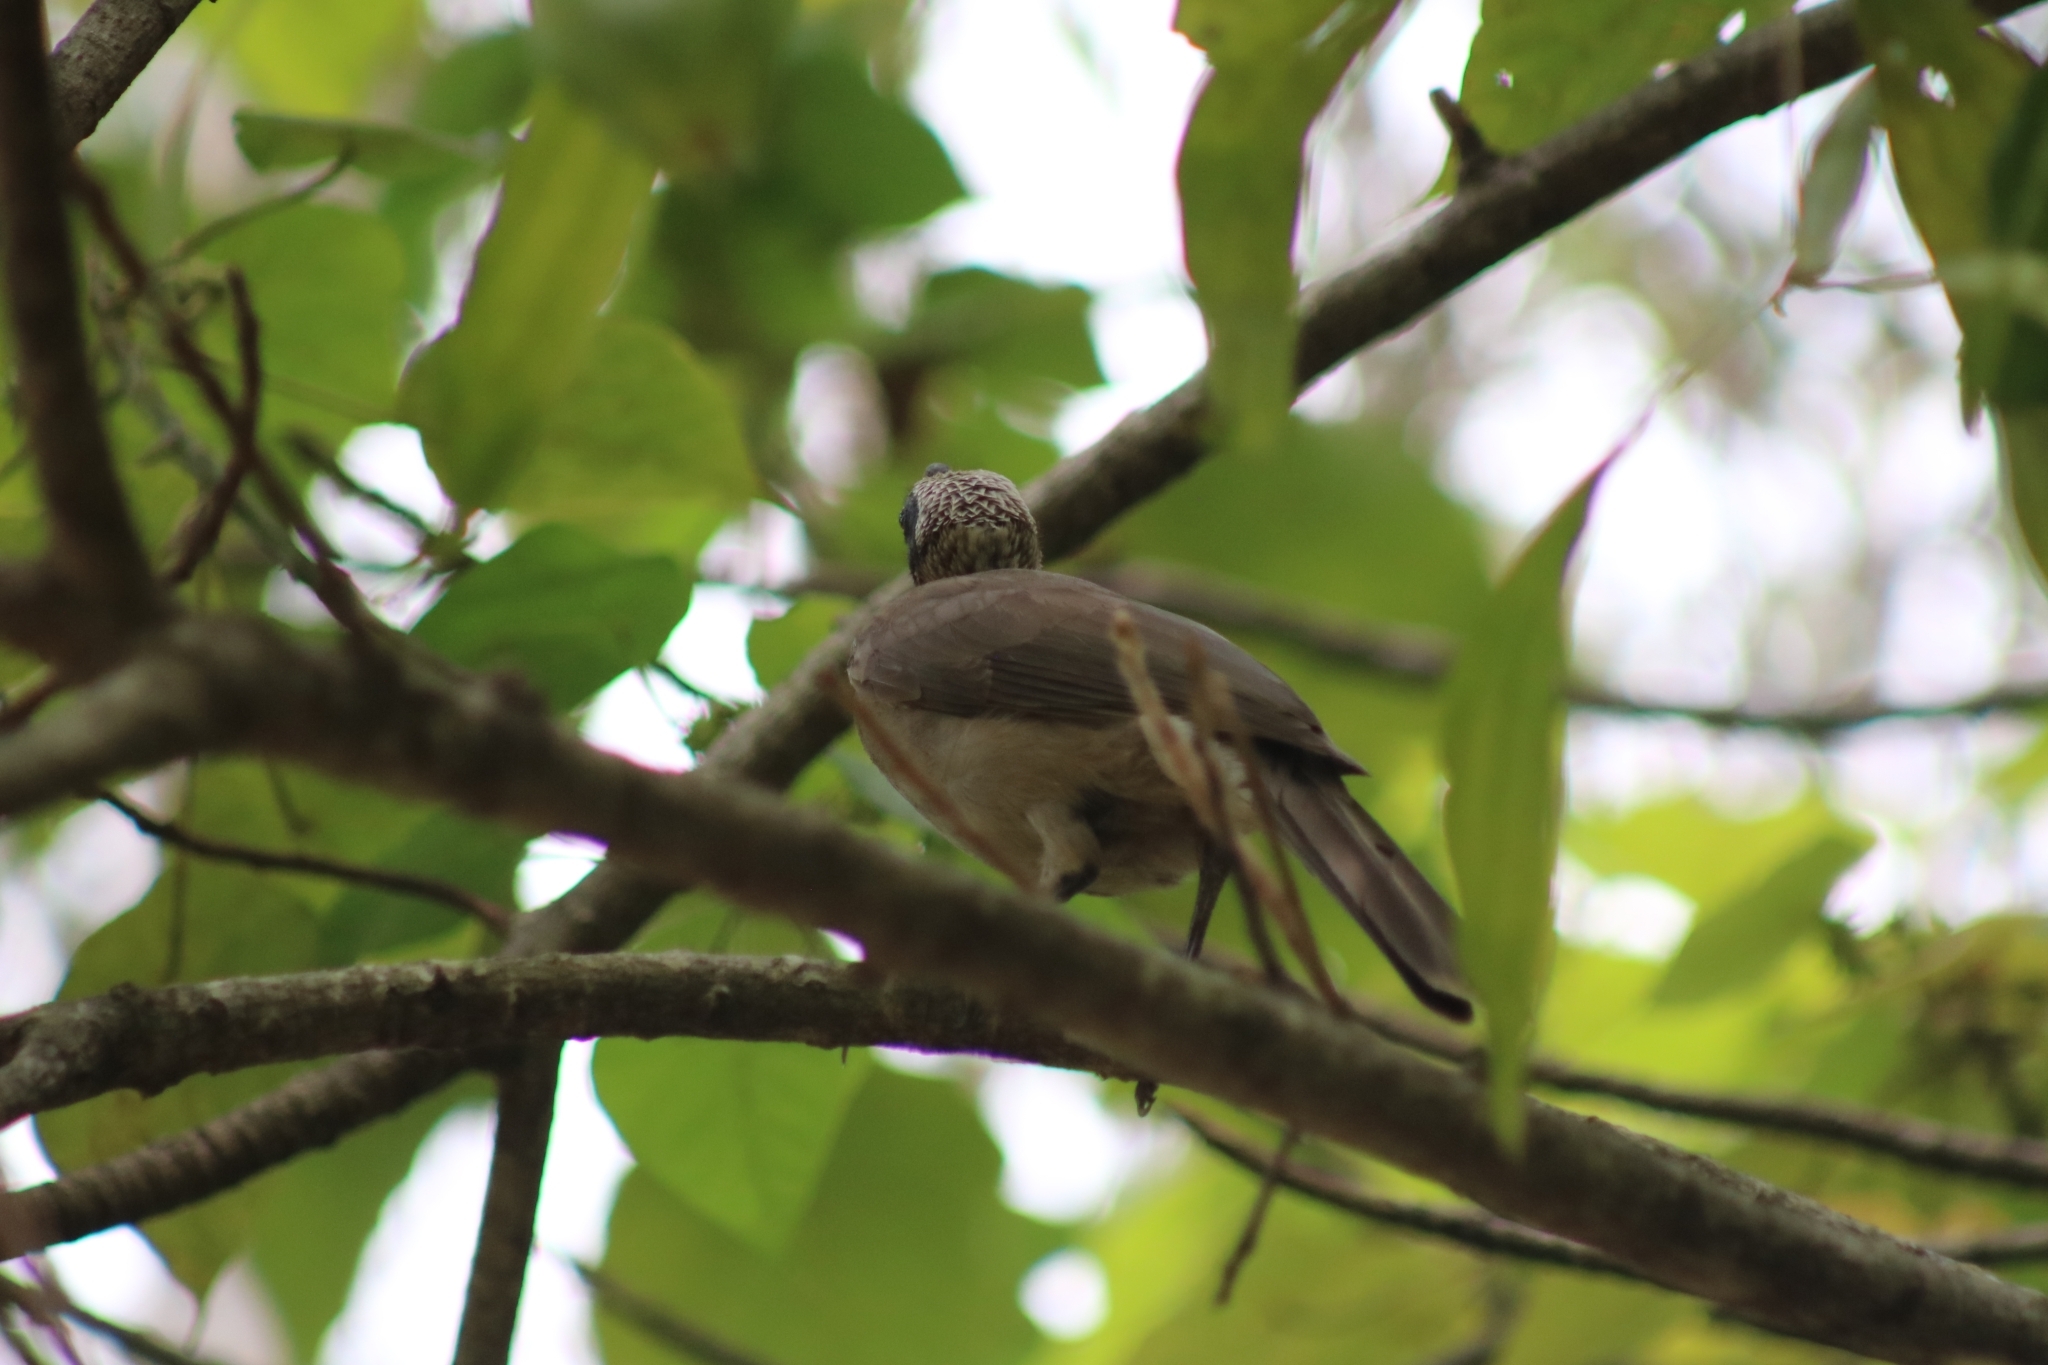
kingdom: Animalia
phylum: Chordata
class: Aves
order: Passeriformes
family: Meliphagidae
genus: Philemon
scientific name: Philemon buceroides
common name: Helmeted friarbird
